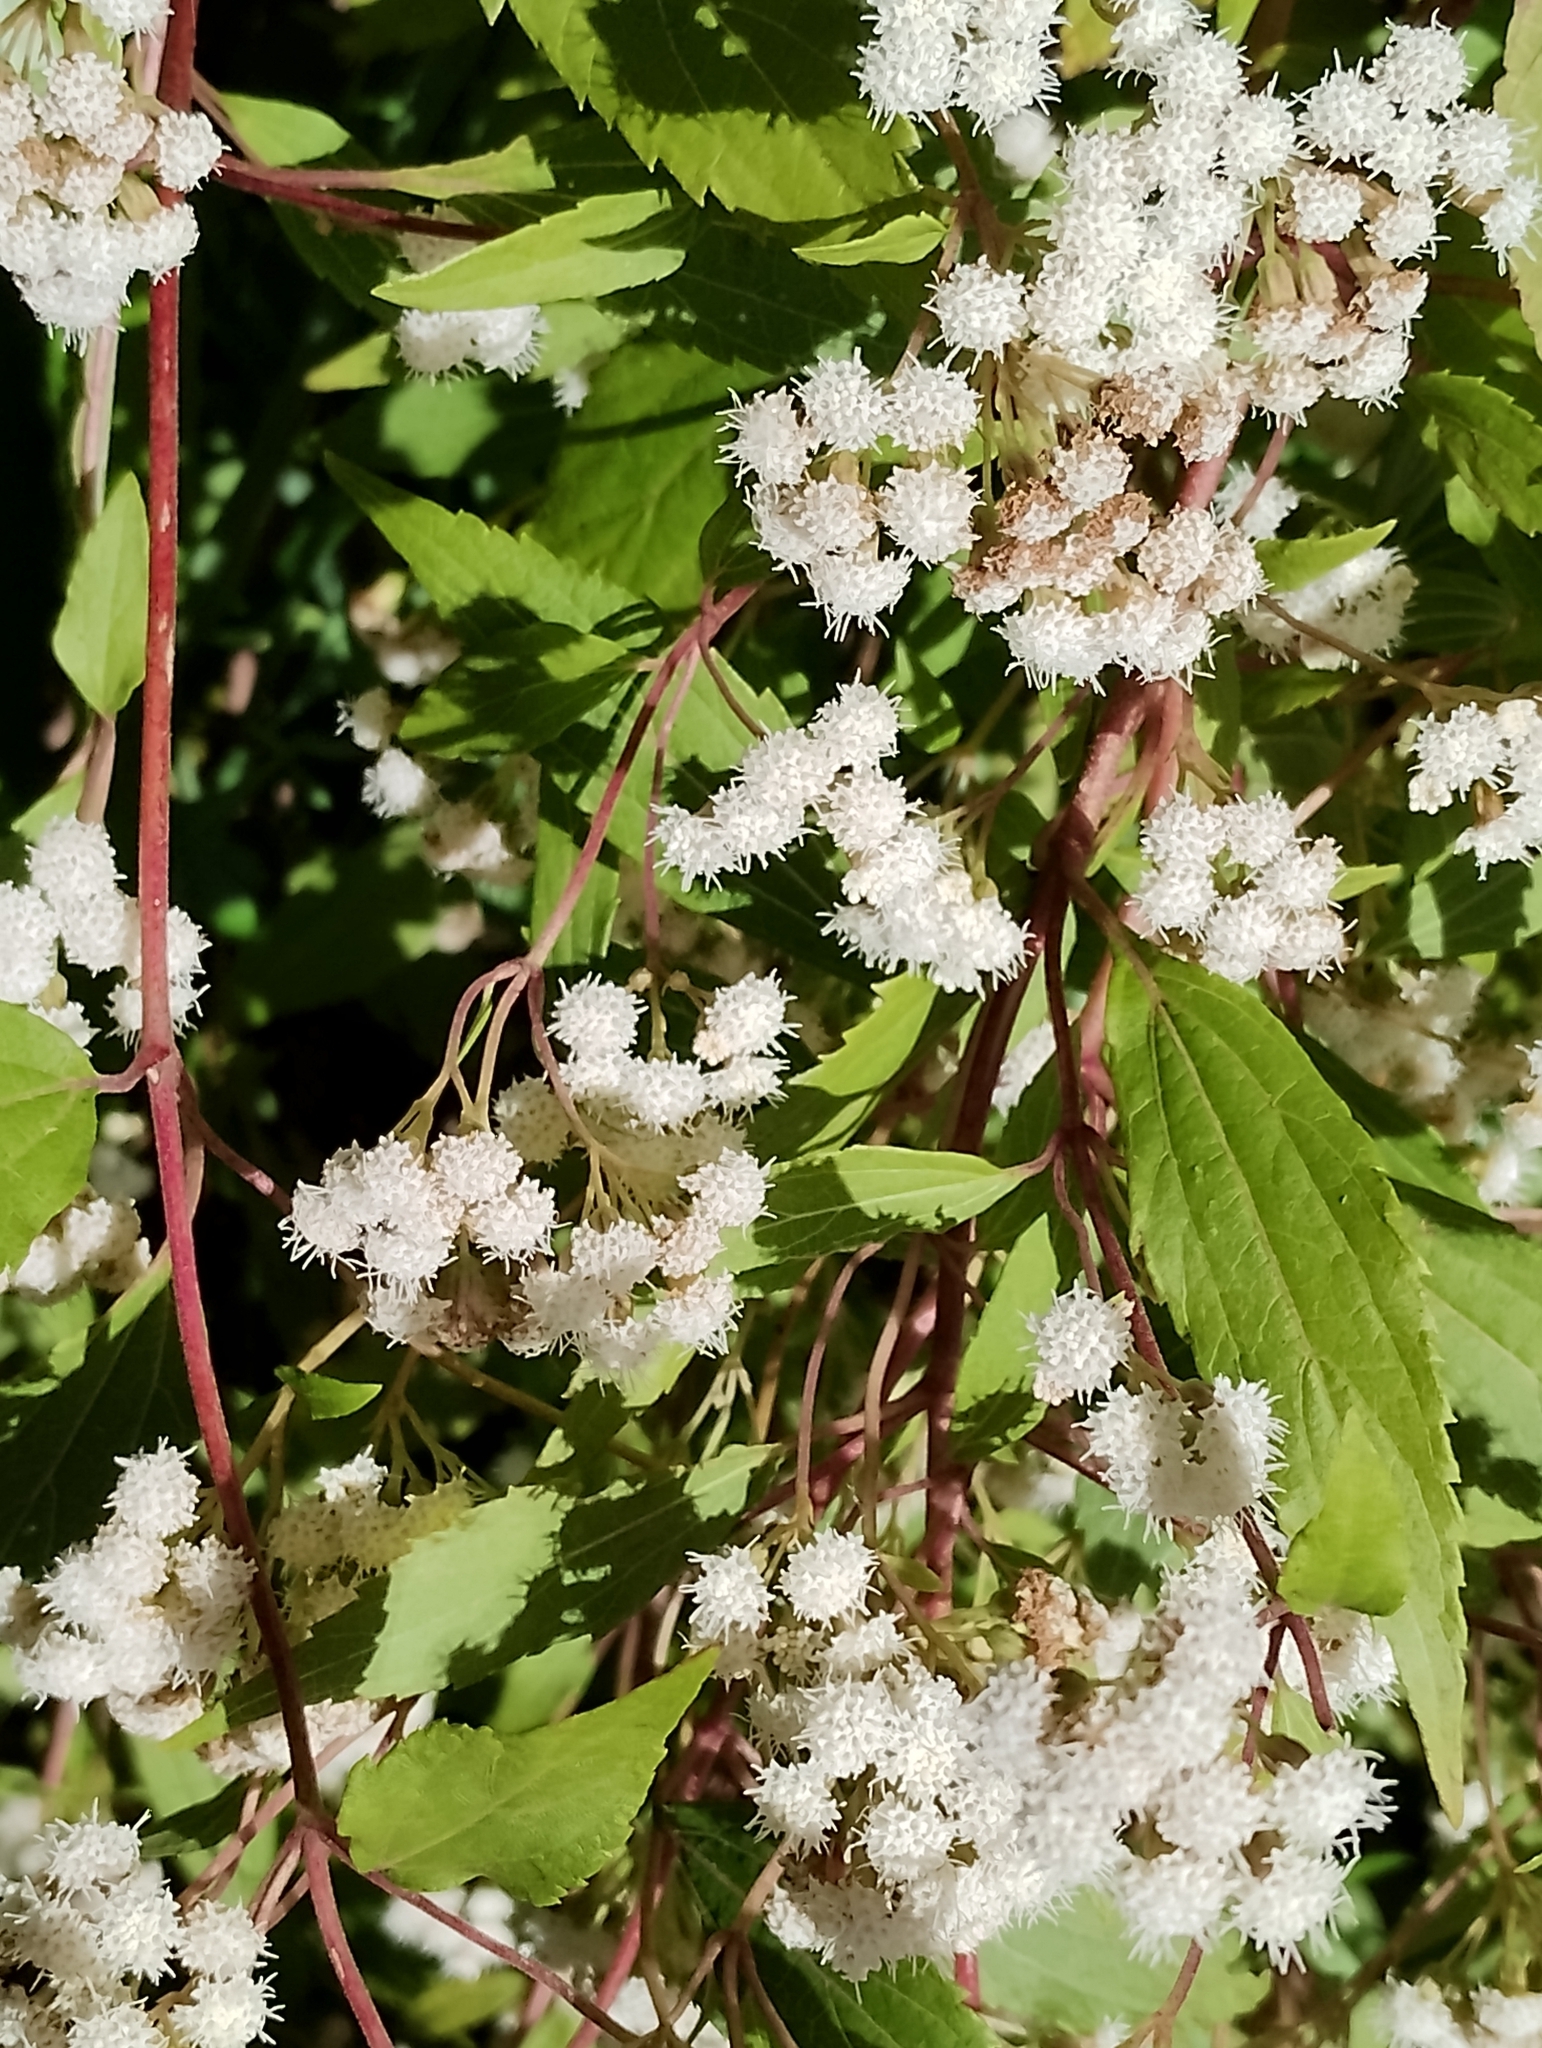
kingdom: Plantae
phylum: Tracheophyta
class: Magnoliopsida
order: Asterales
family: Asteraceae
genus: Ageratina
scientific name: Ageratina riparia
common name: Creeping croftonweed
